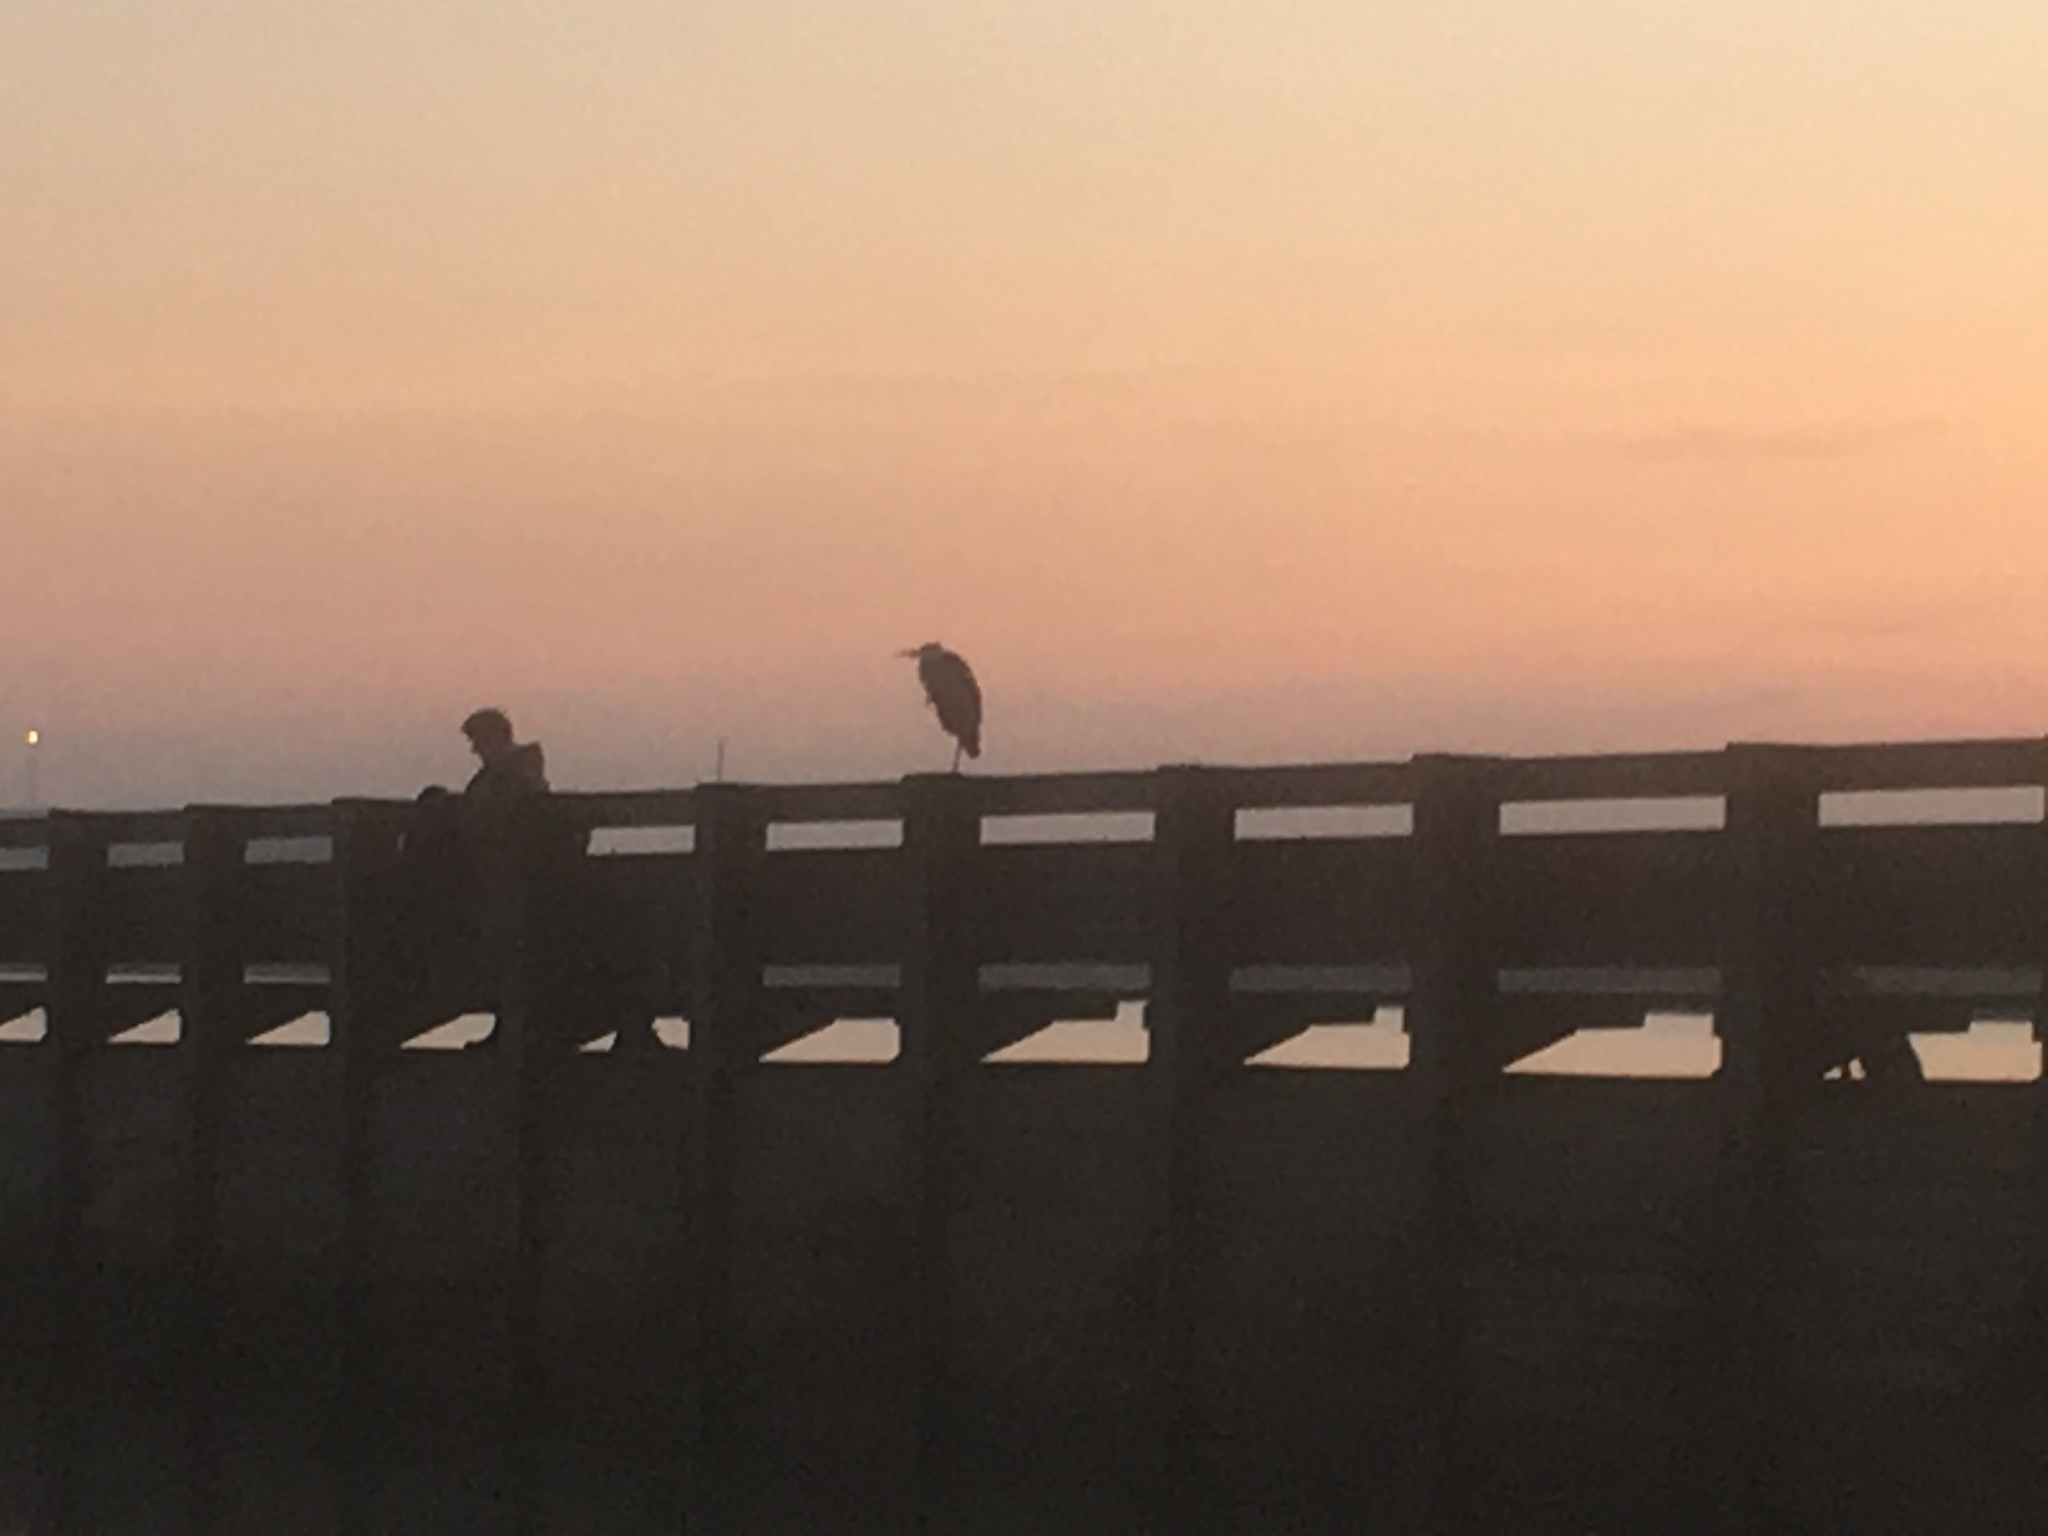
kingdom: Animalia
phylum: Chordata
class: Aves
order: Pelecaniformes
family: Ardeidae
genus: Ardea
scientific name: Ardea cinerea
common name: Grey heron
